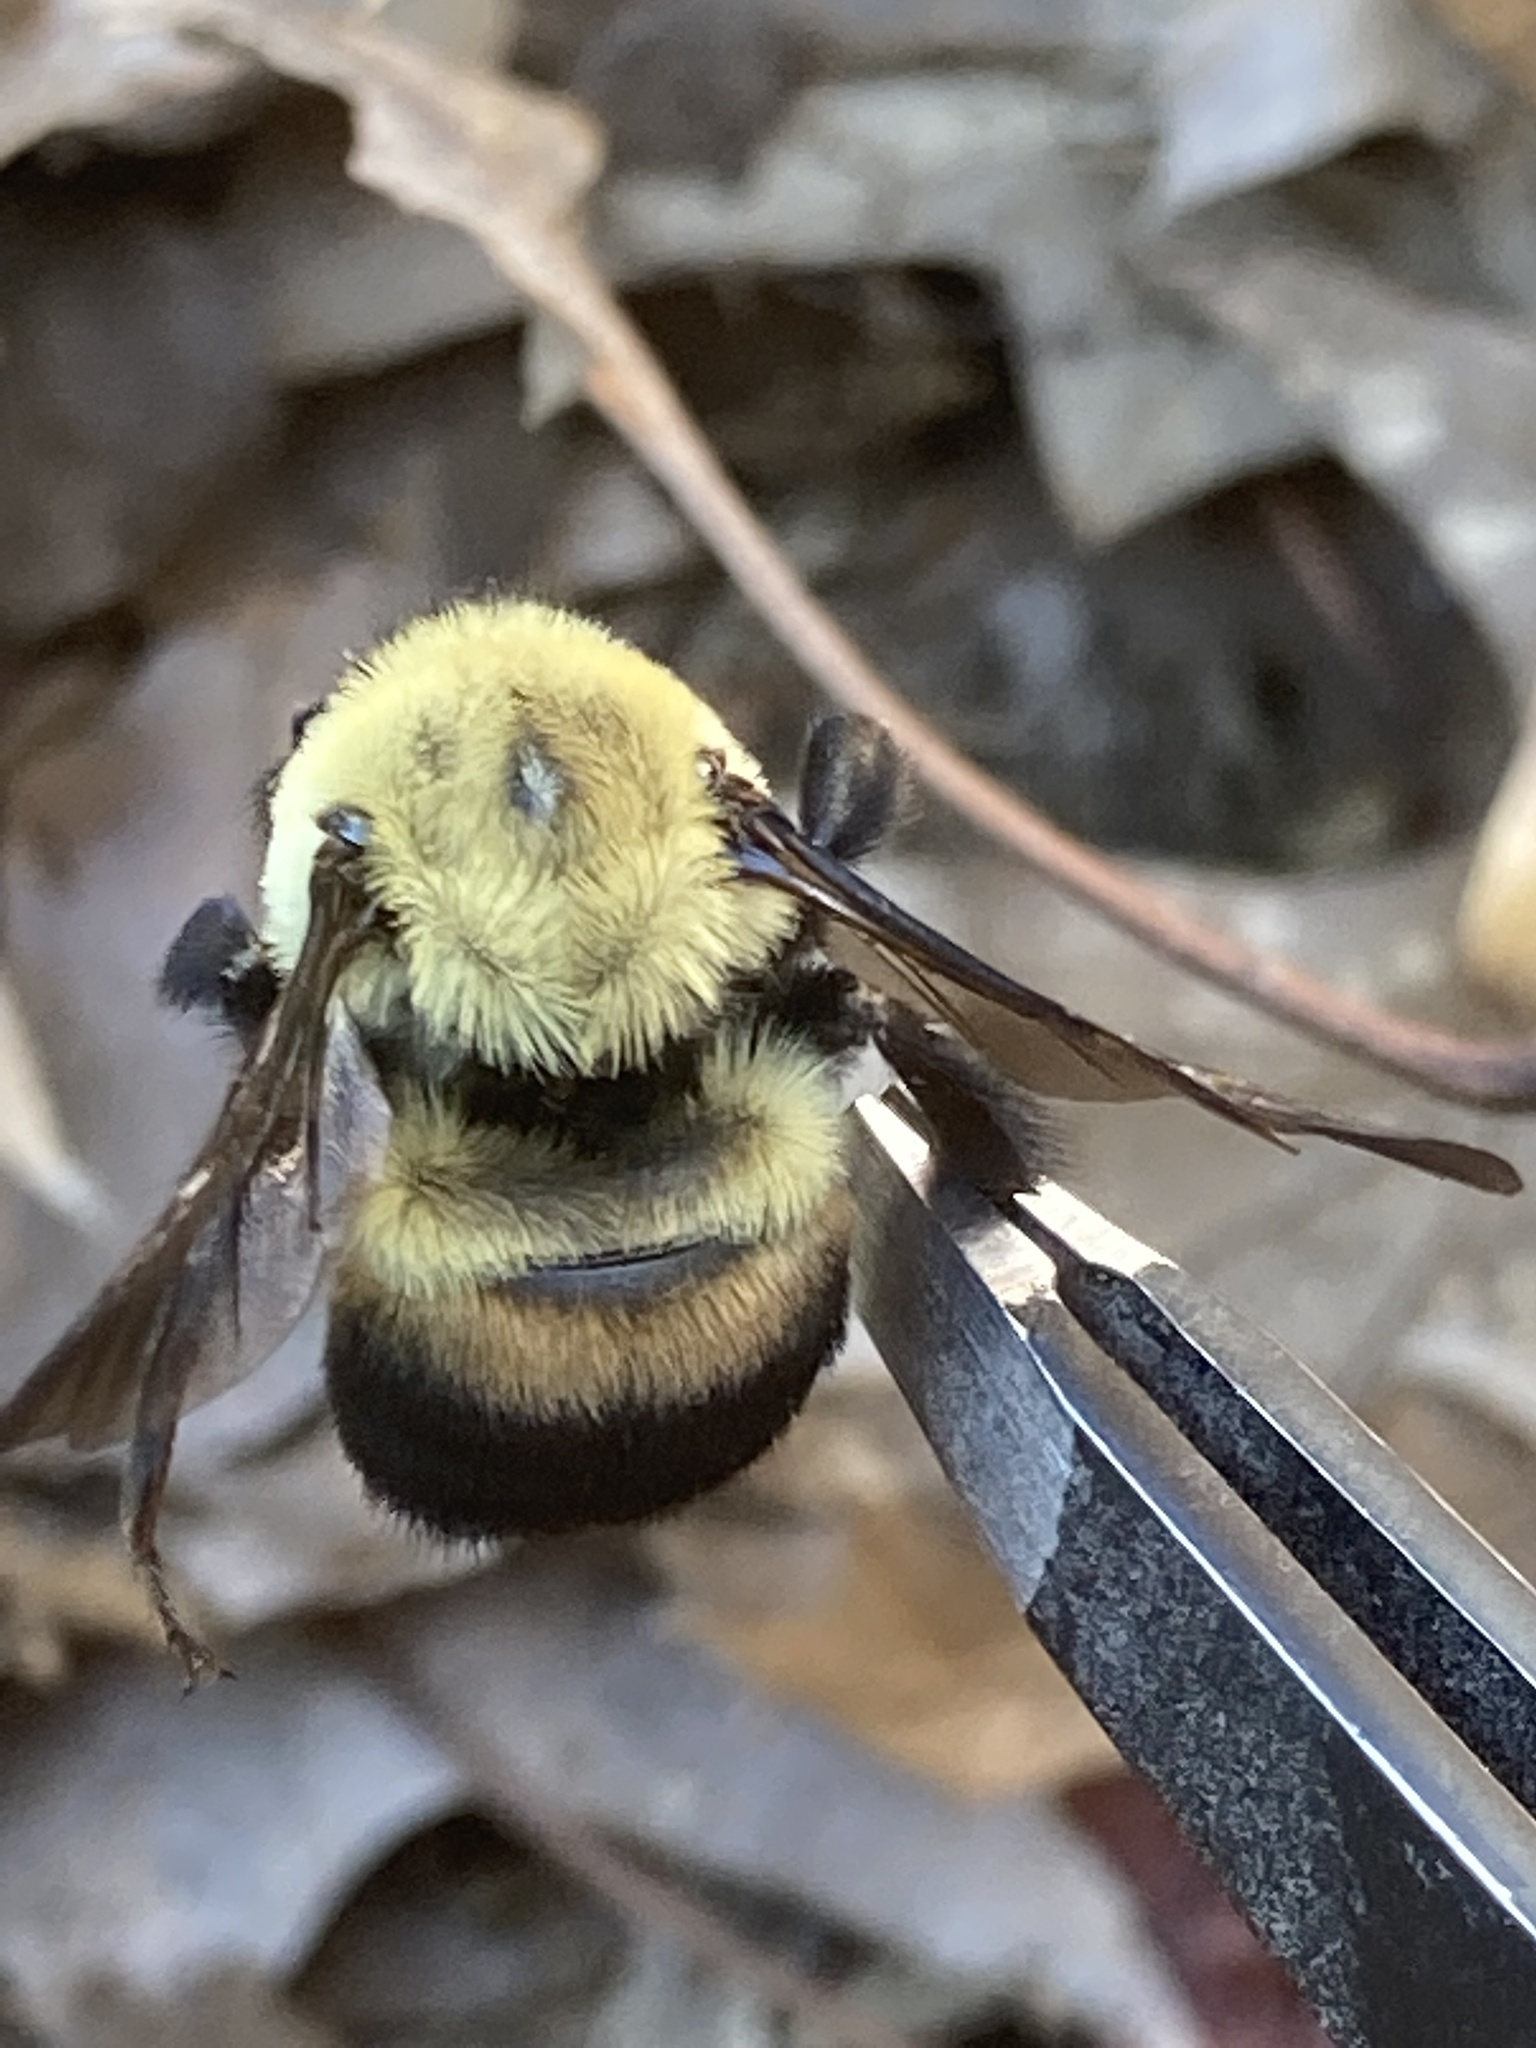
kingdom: Animalia
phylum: Arthropoda
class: Insecta
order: Hymenoptera
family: Apidae
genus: Bombus
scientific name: Bombus griseocollis
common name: Brown-belted bumble bee
